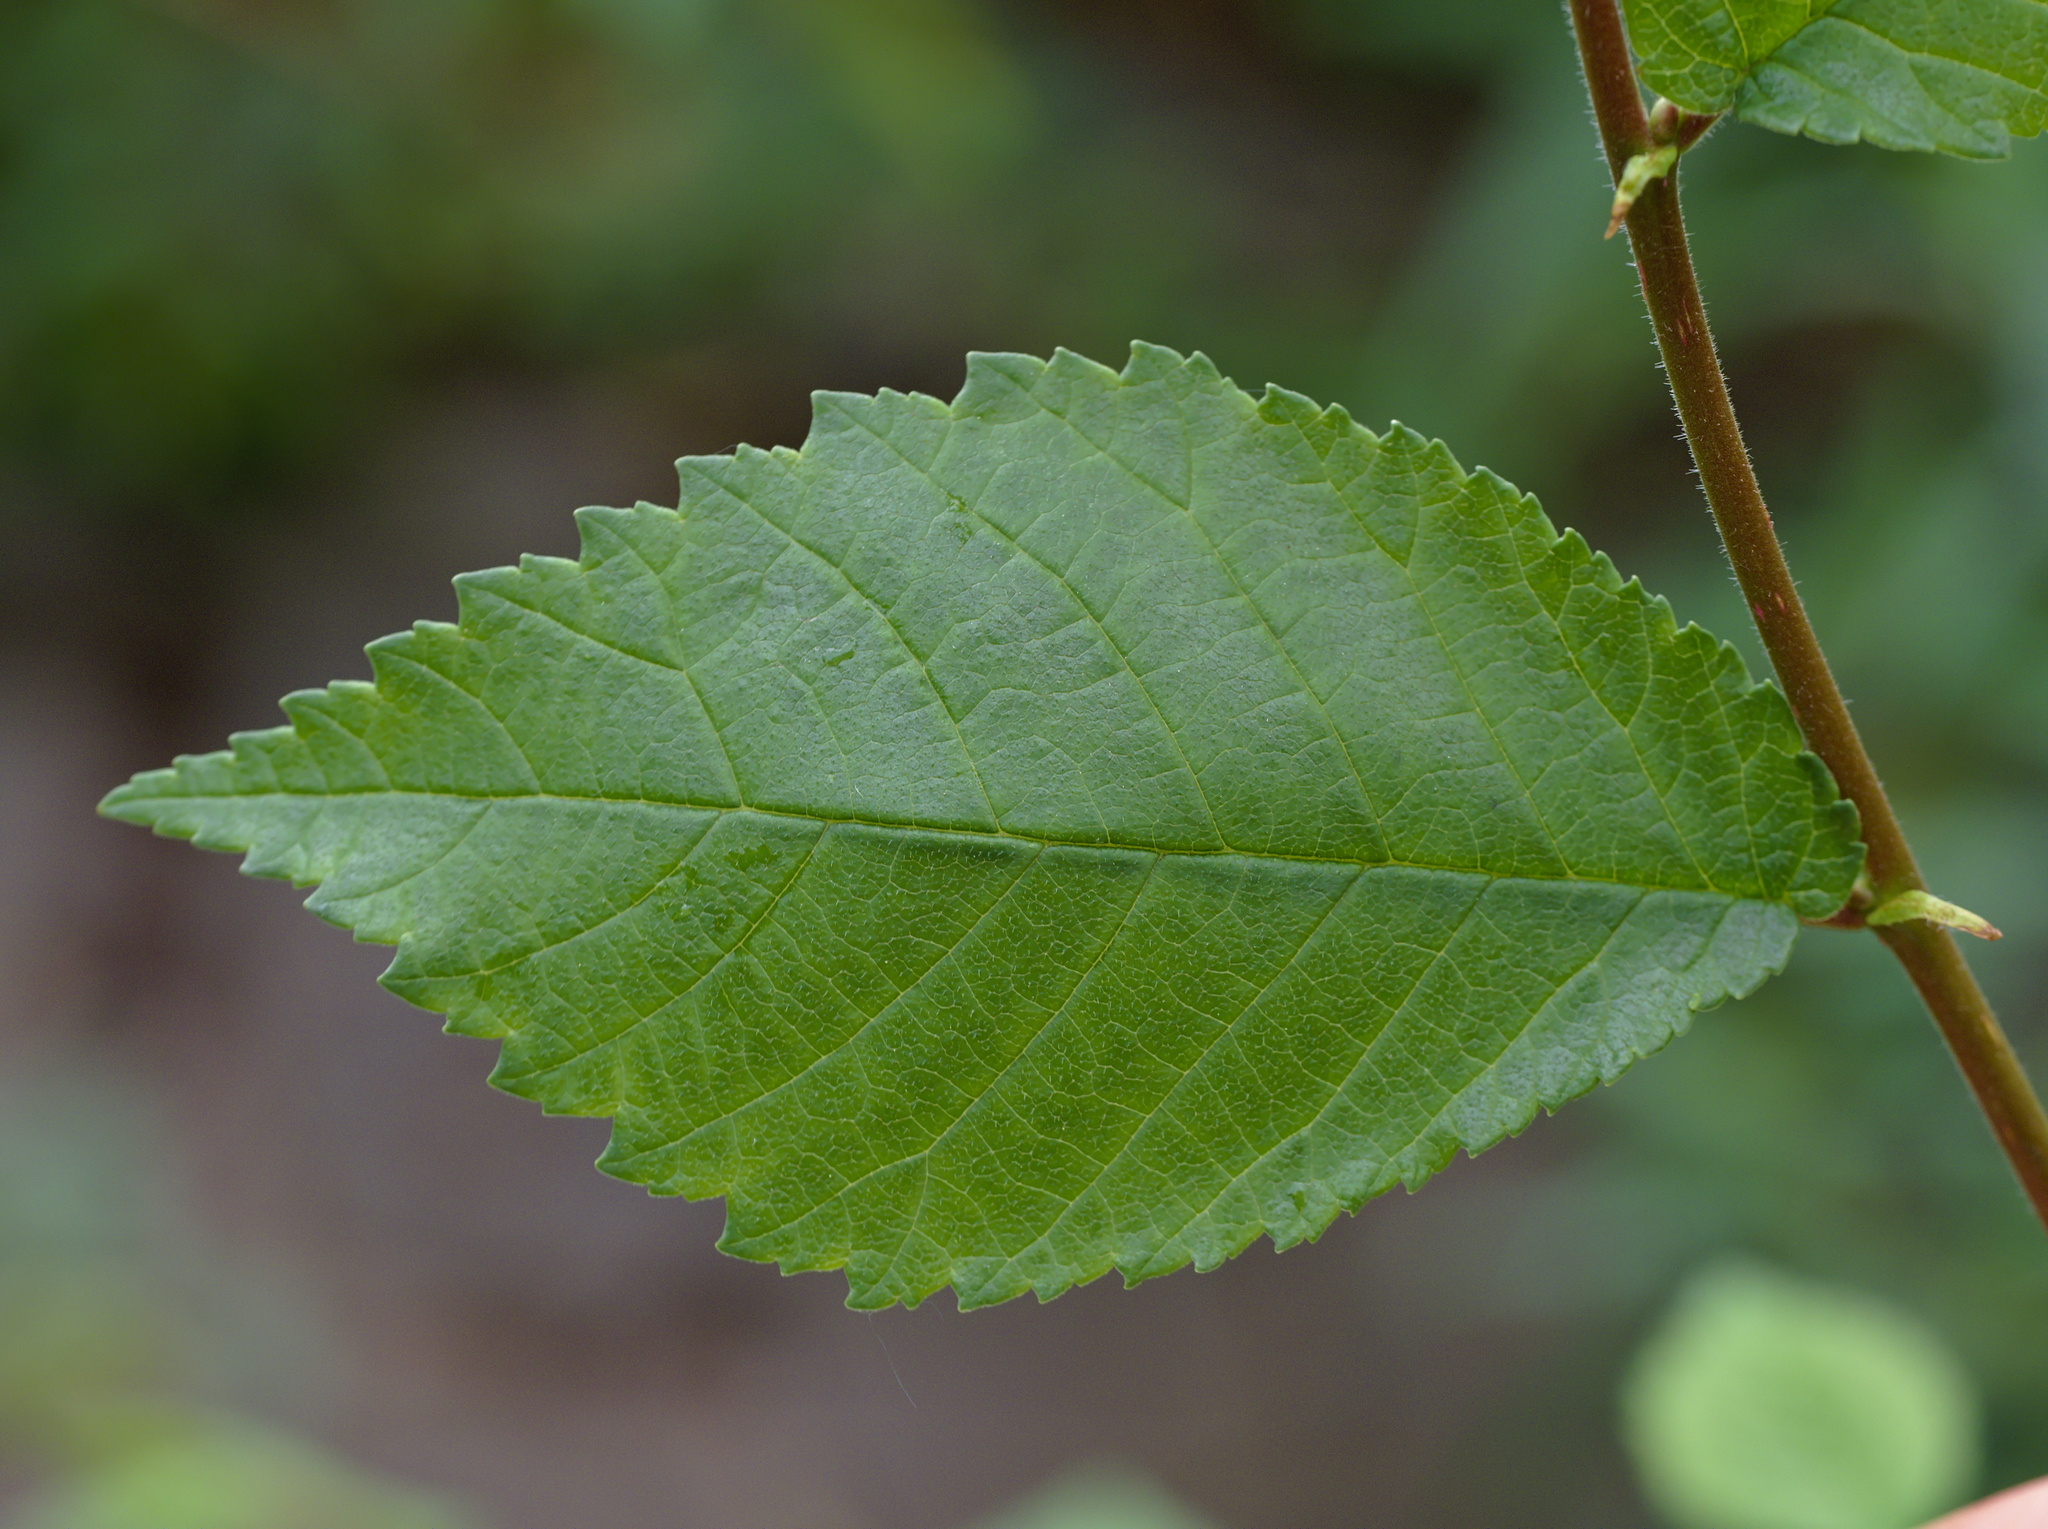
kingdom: Plantae
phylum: Tracheophyta
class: Magnoliopsida
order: Rosales
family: Ulmaceae
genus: Ulmus
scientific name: Ulmus minor
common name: Small-leaved elm
